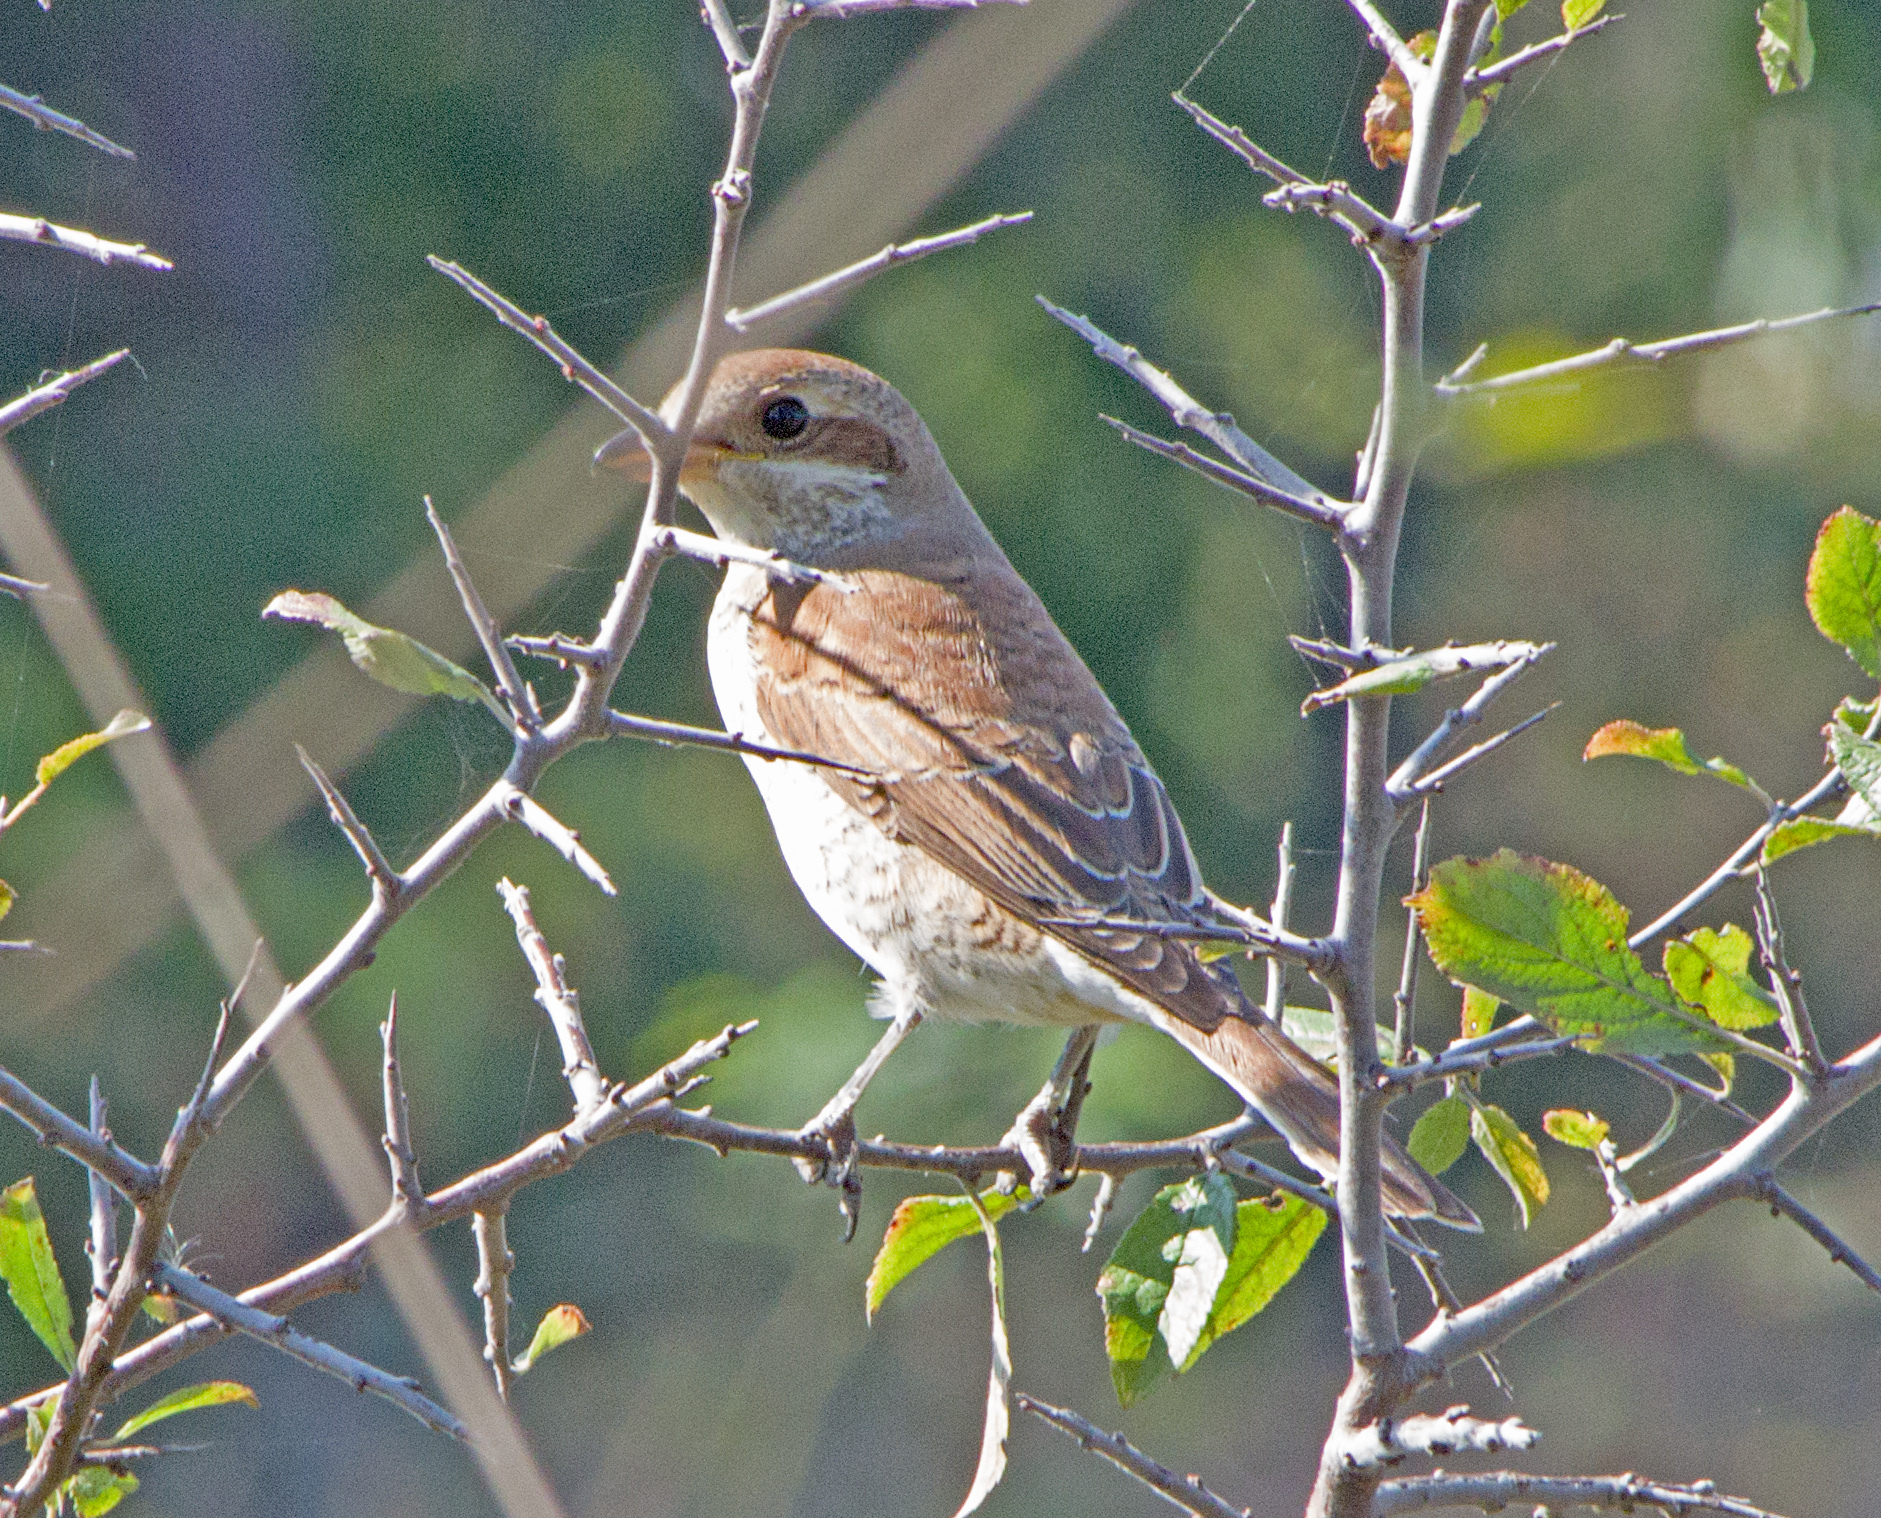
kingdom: Animalia
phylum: Chordata
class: Aves
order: Passeriformes
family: Laniidae
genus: Lanius
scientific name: Lanius collurio
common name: Red-backed shrike
